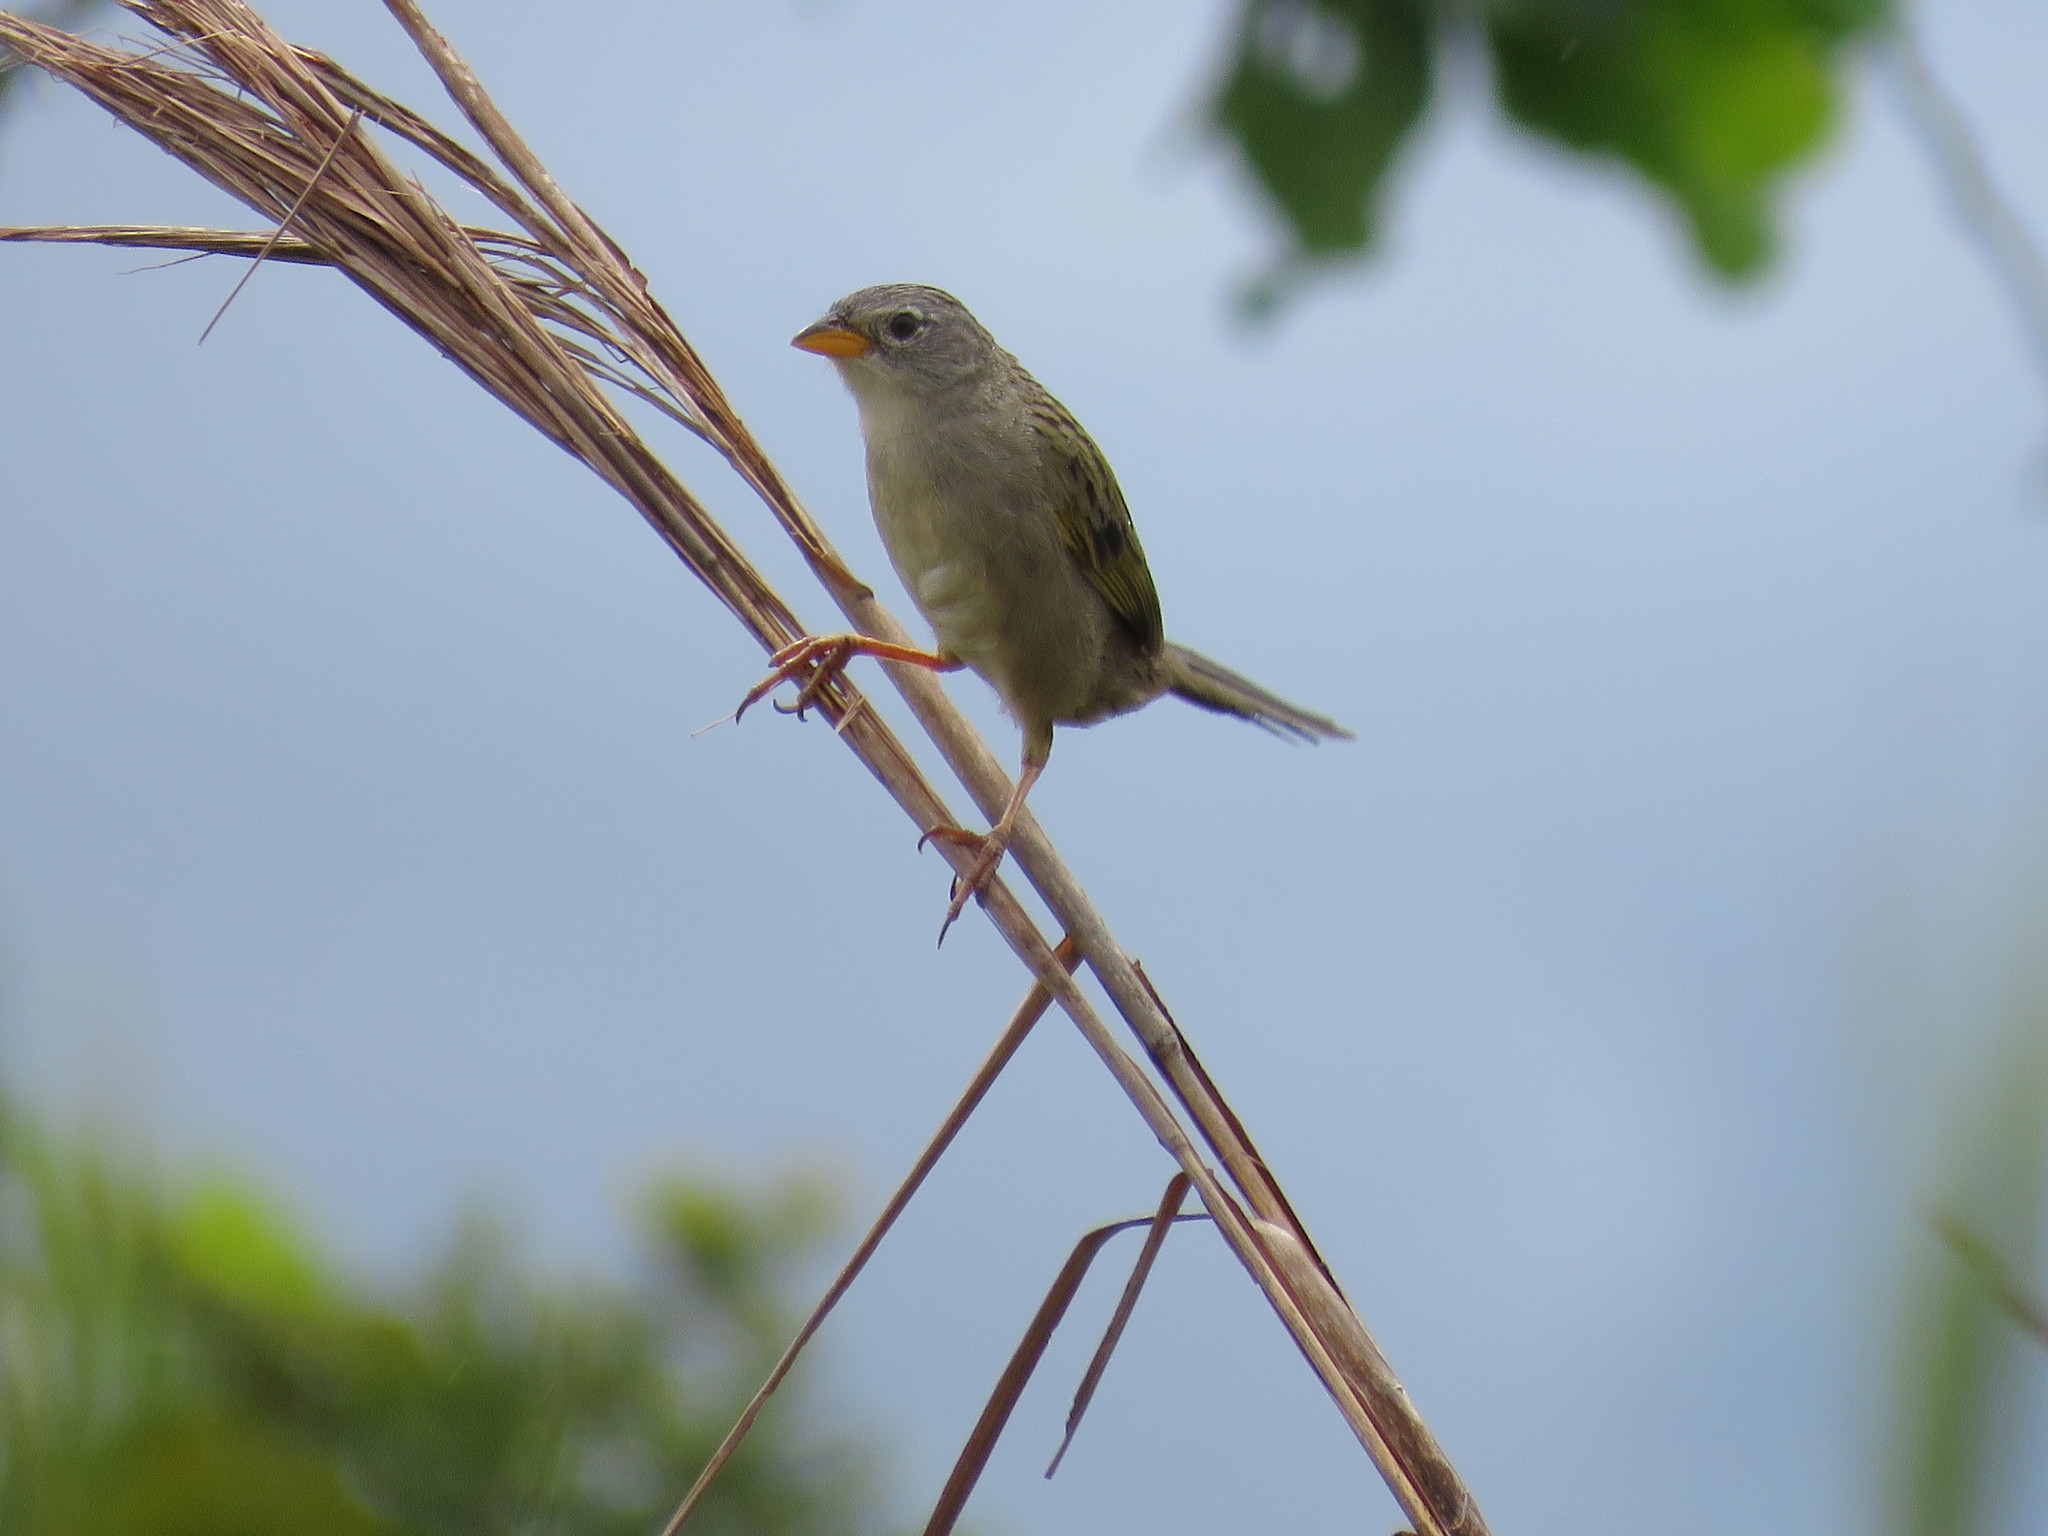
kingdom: Animalia
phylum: Chordata
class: Aves
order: Passeriformes
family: Thraupidae
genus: Emberizoides
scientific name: Emberizoides herbicola
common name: Wedge-tailed grass-finch
